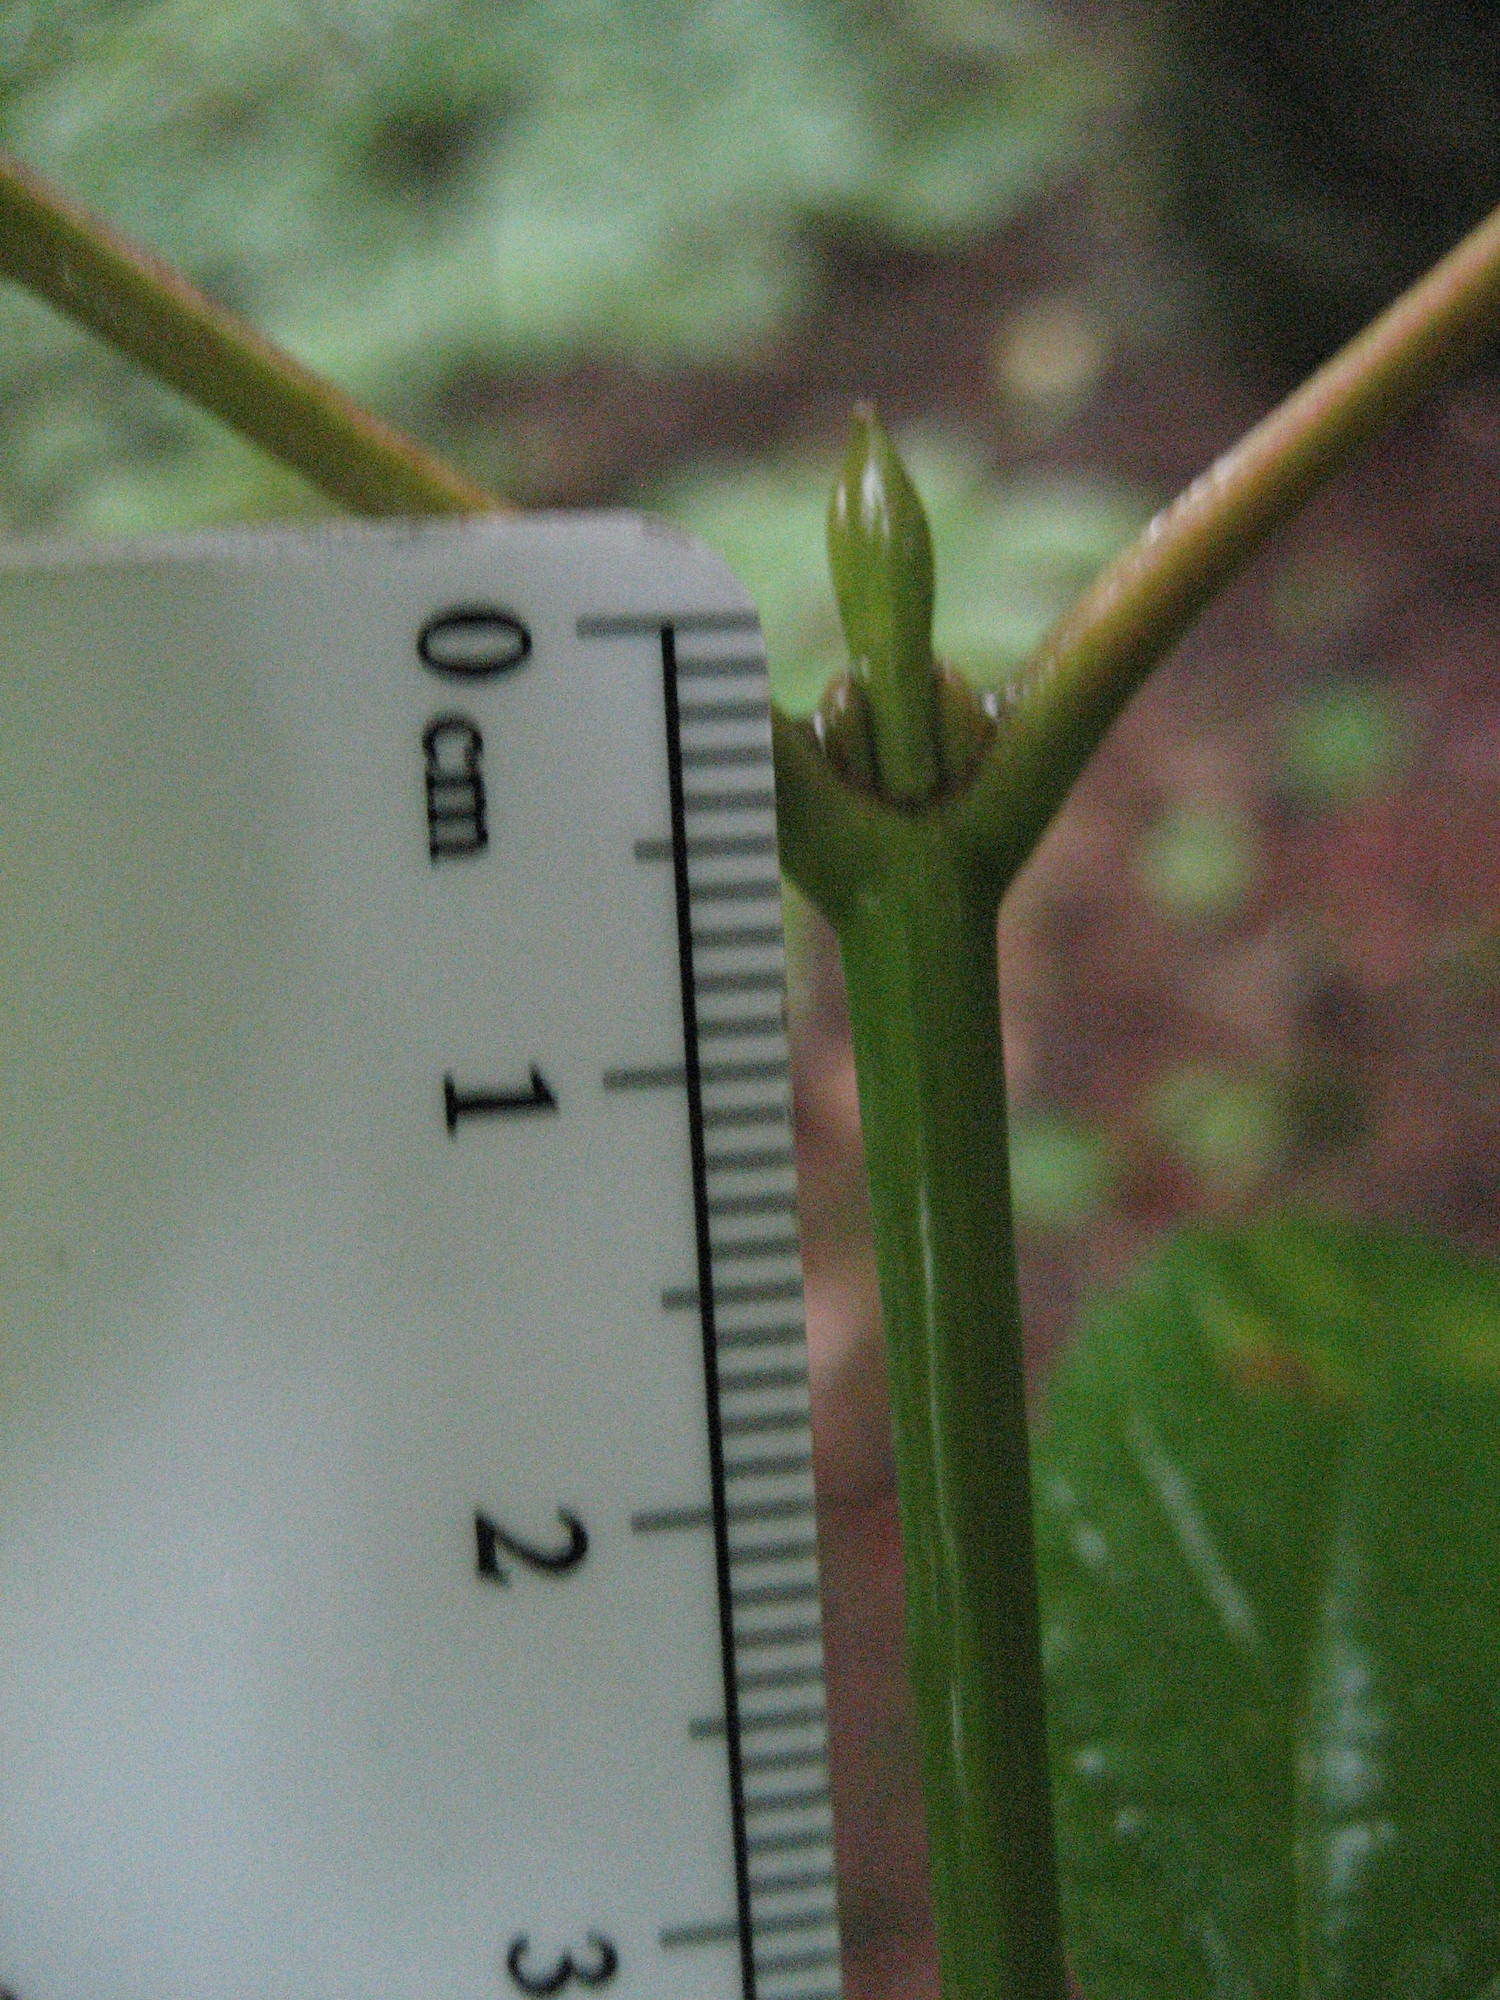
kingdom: Plantae
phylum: Tracheophyta
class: Magnoliopsida
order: Sapindales
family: Sapindaceae
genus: Acer
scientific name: Acer pensylvanicum
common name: Moosewood
